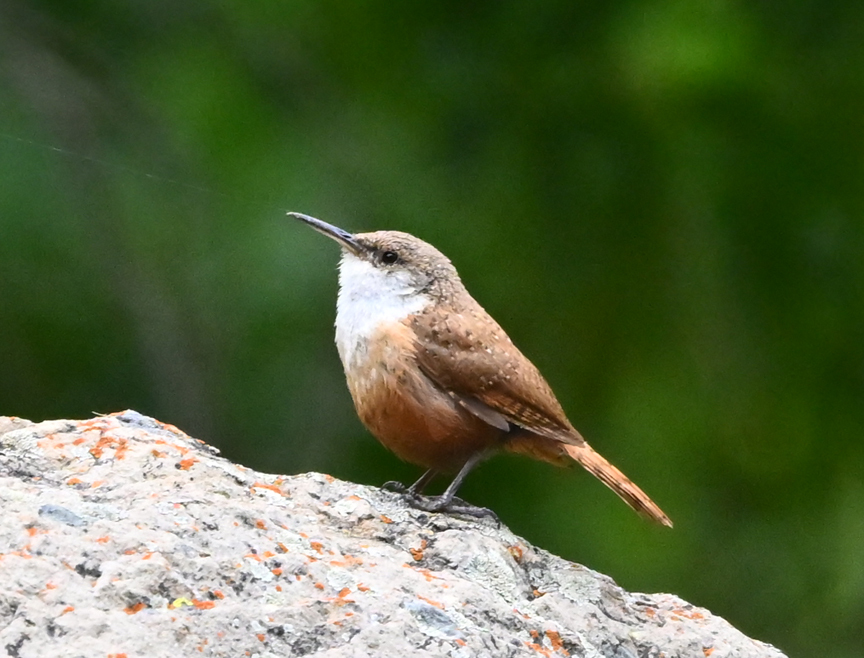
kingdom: Animalia
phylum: Chordata
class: Aves
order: Passeriformes
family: Troglodytidae
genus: Catherpes
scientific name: Catherpes mexicanus
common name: Canyon wren
